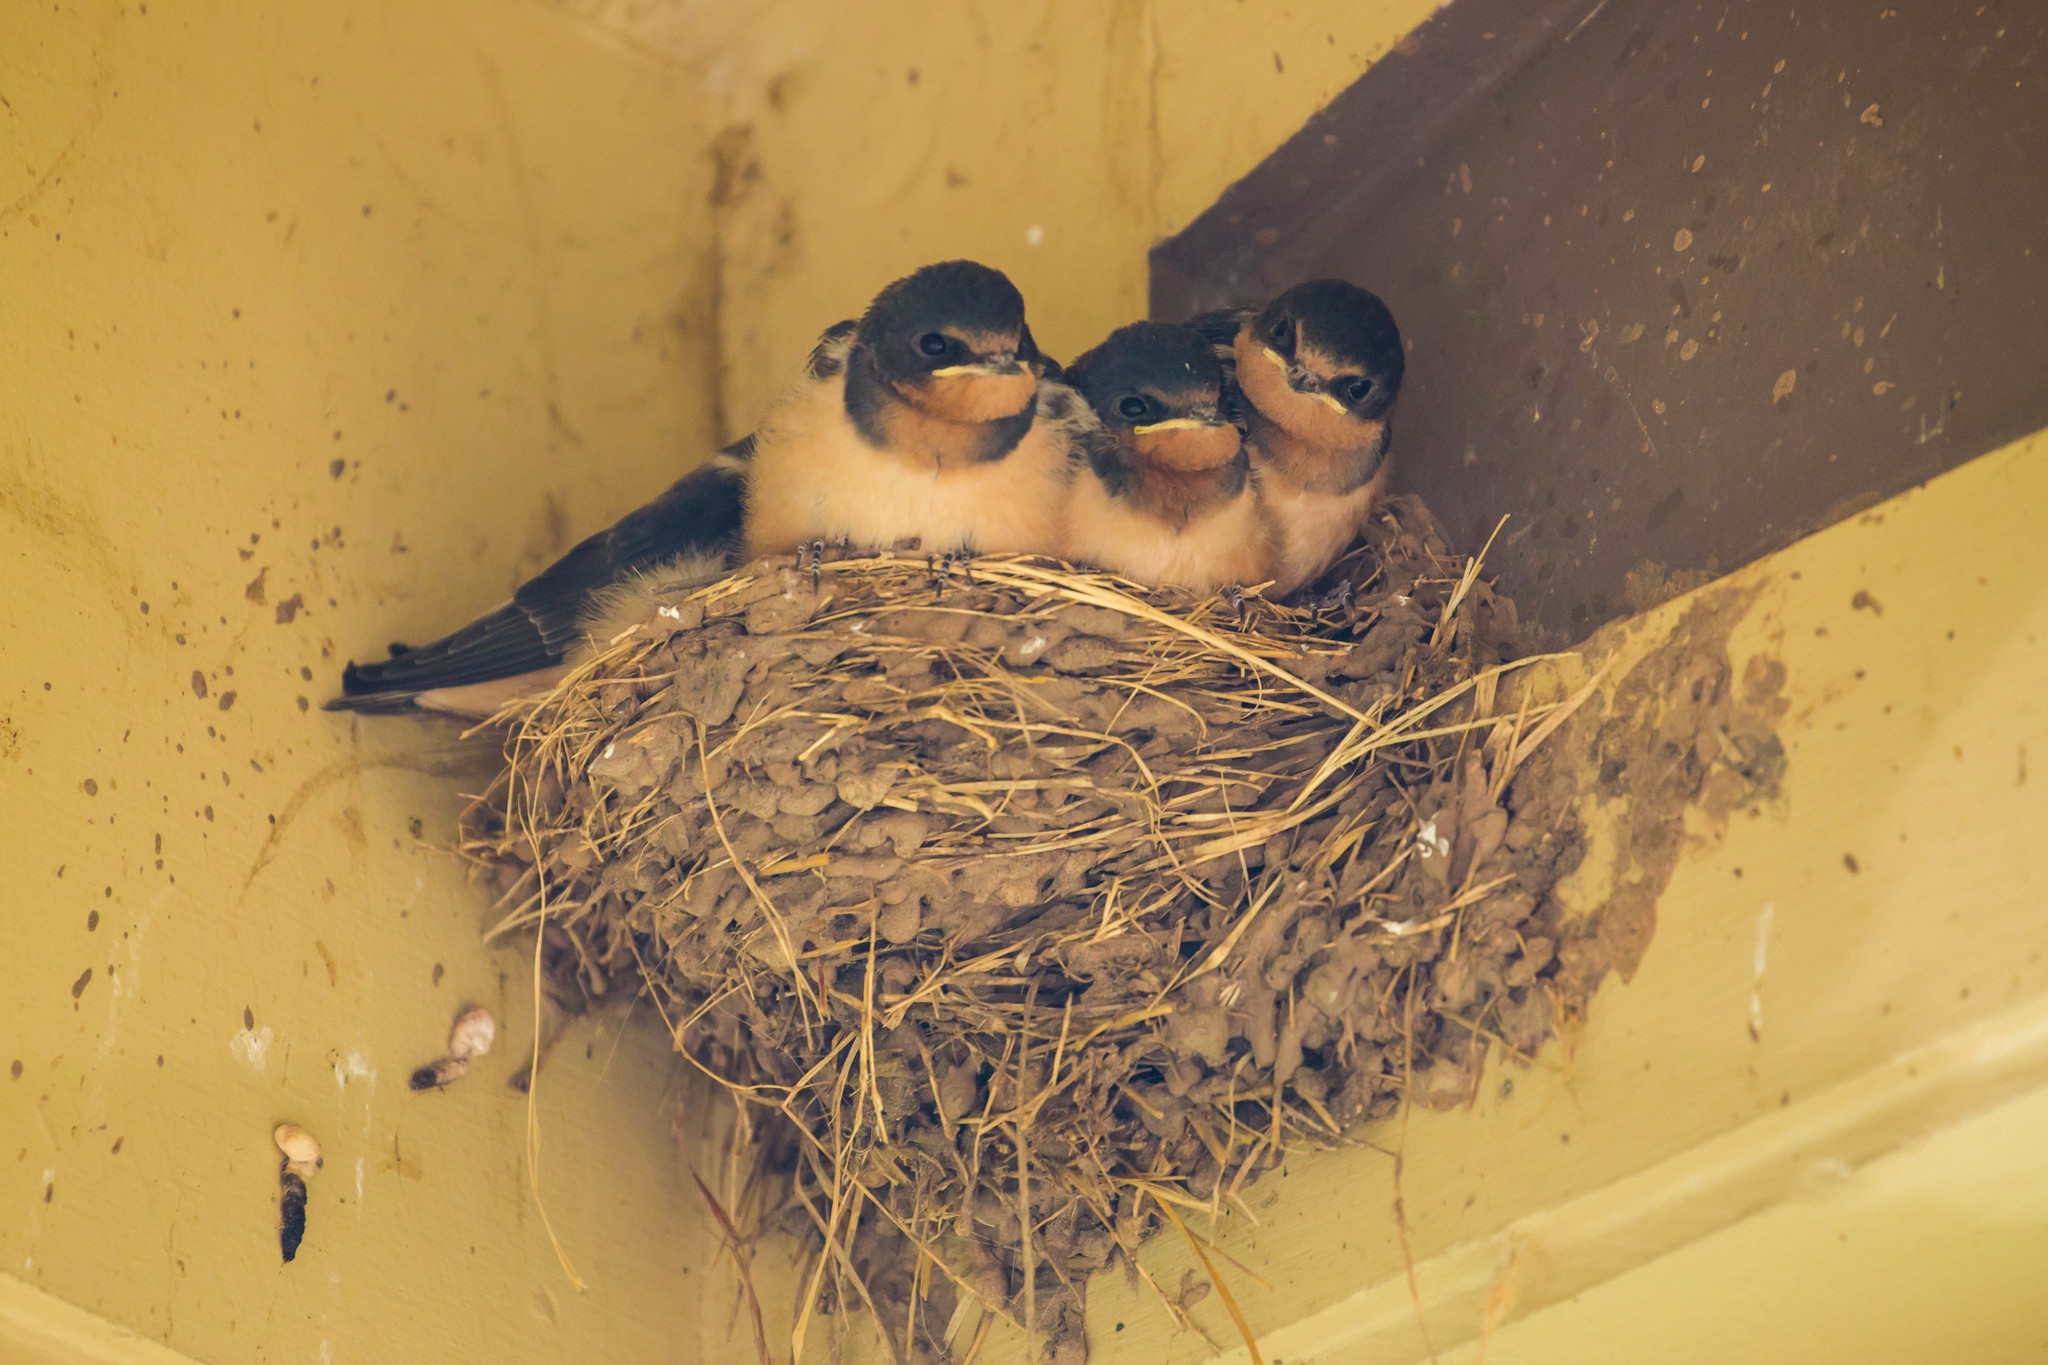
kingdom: Animalia
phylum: Chordata
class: Aves
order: Passeriformes
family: Hirundinidae
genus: Hirundo
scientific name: Hirundo rustica
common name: Barn swallow
